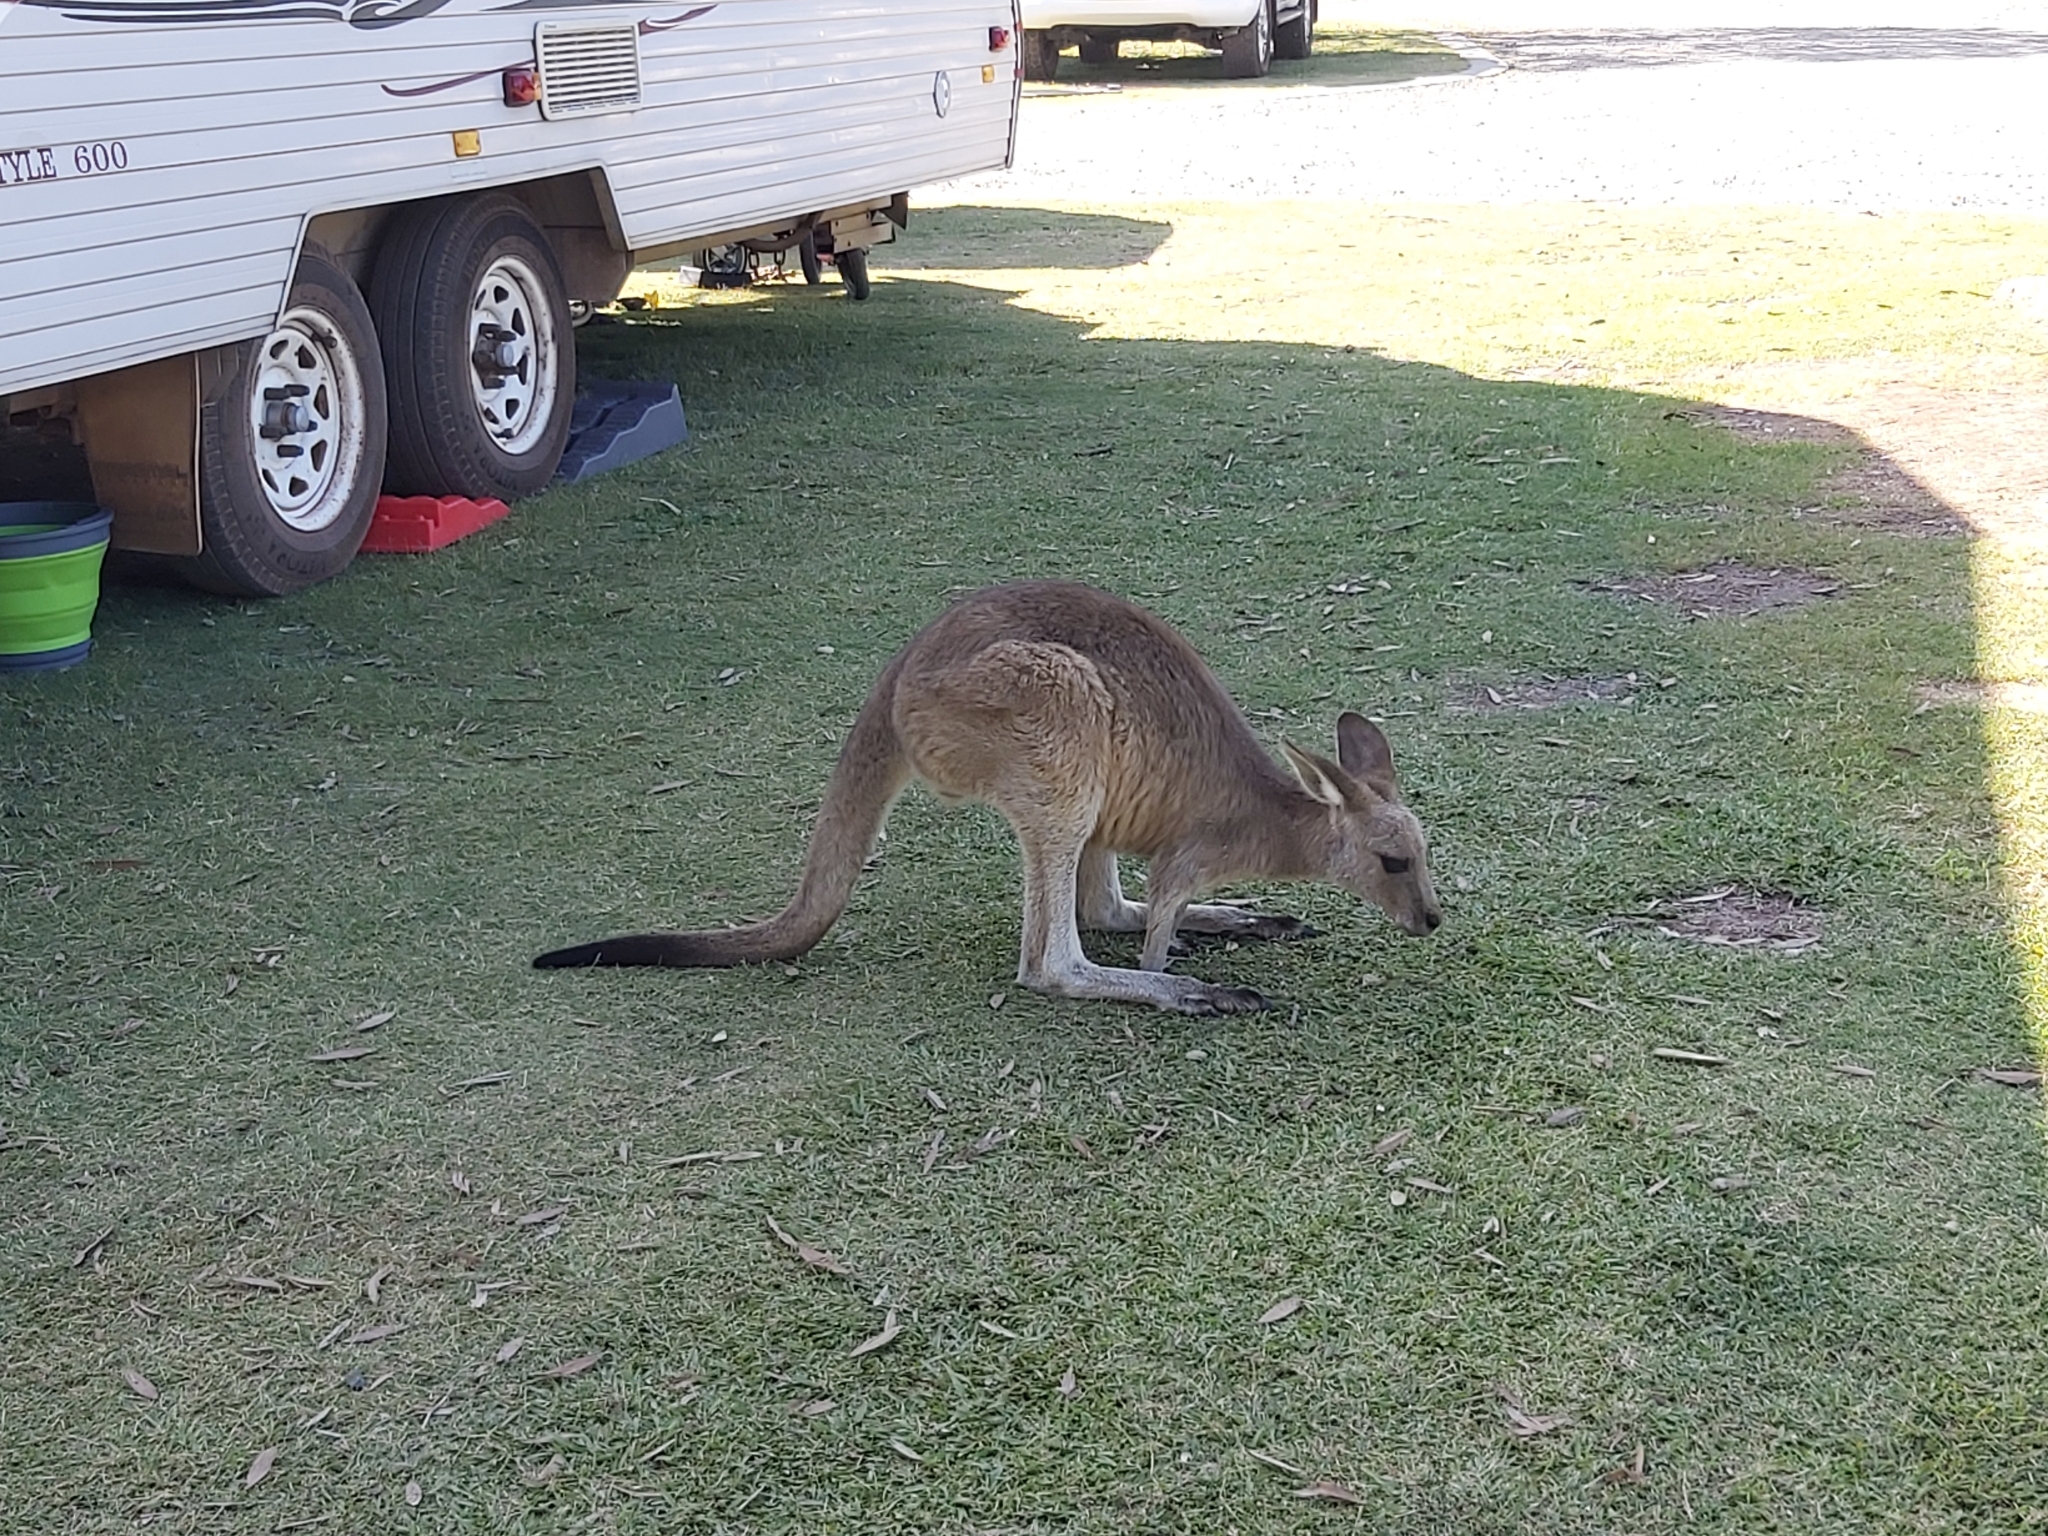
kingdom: Animalia
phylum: Chordata
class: Mammalia
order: Diprotodontia
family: Macropodidae
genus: Macropus
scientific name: Macropus giganteus
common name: Eastern grey kangaroo
